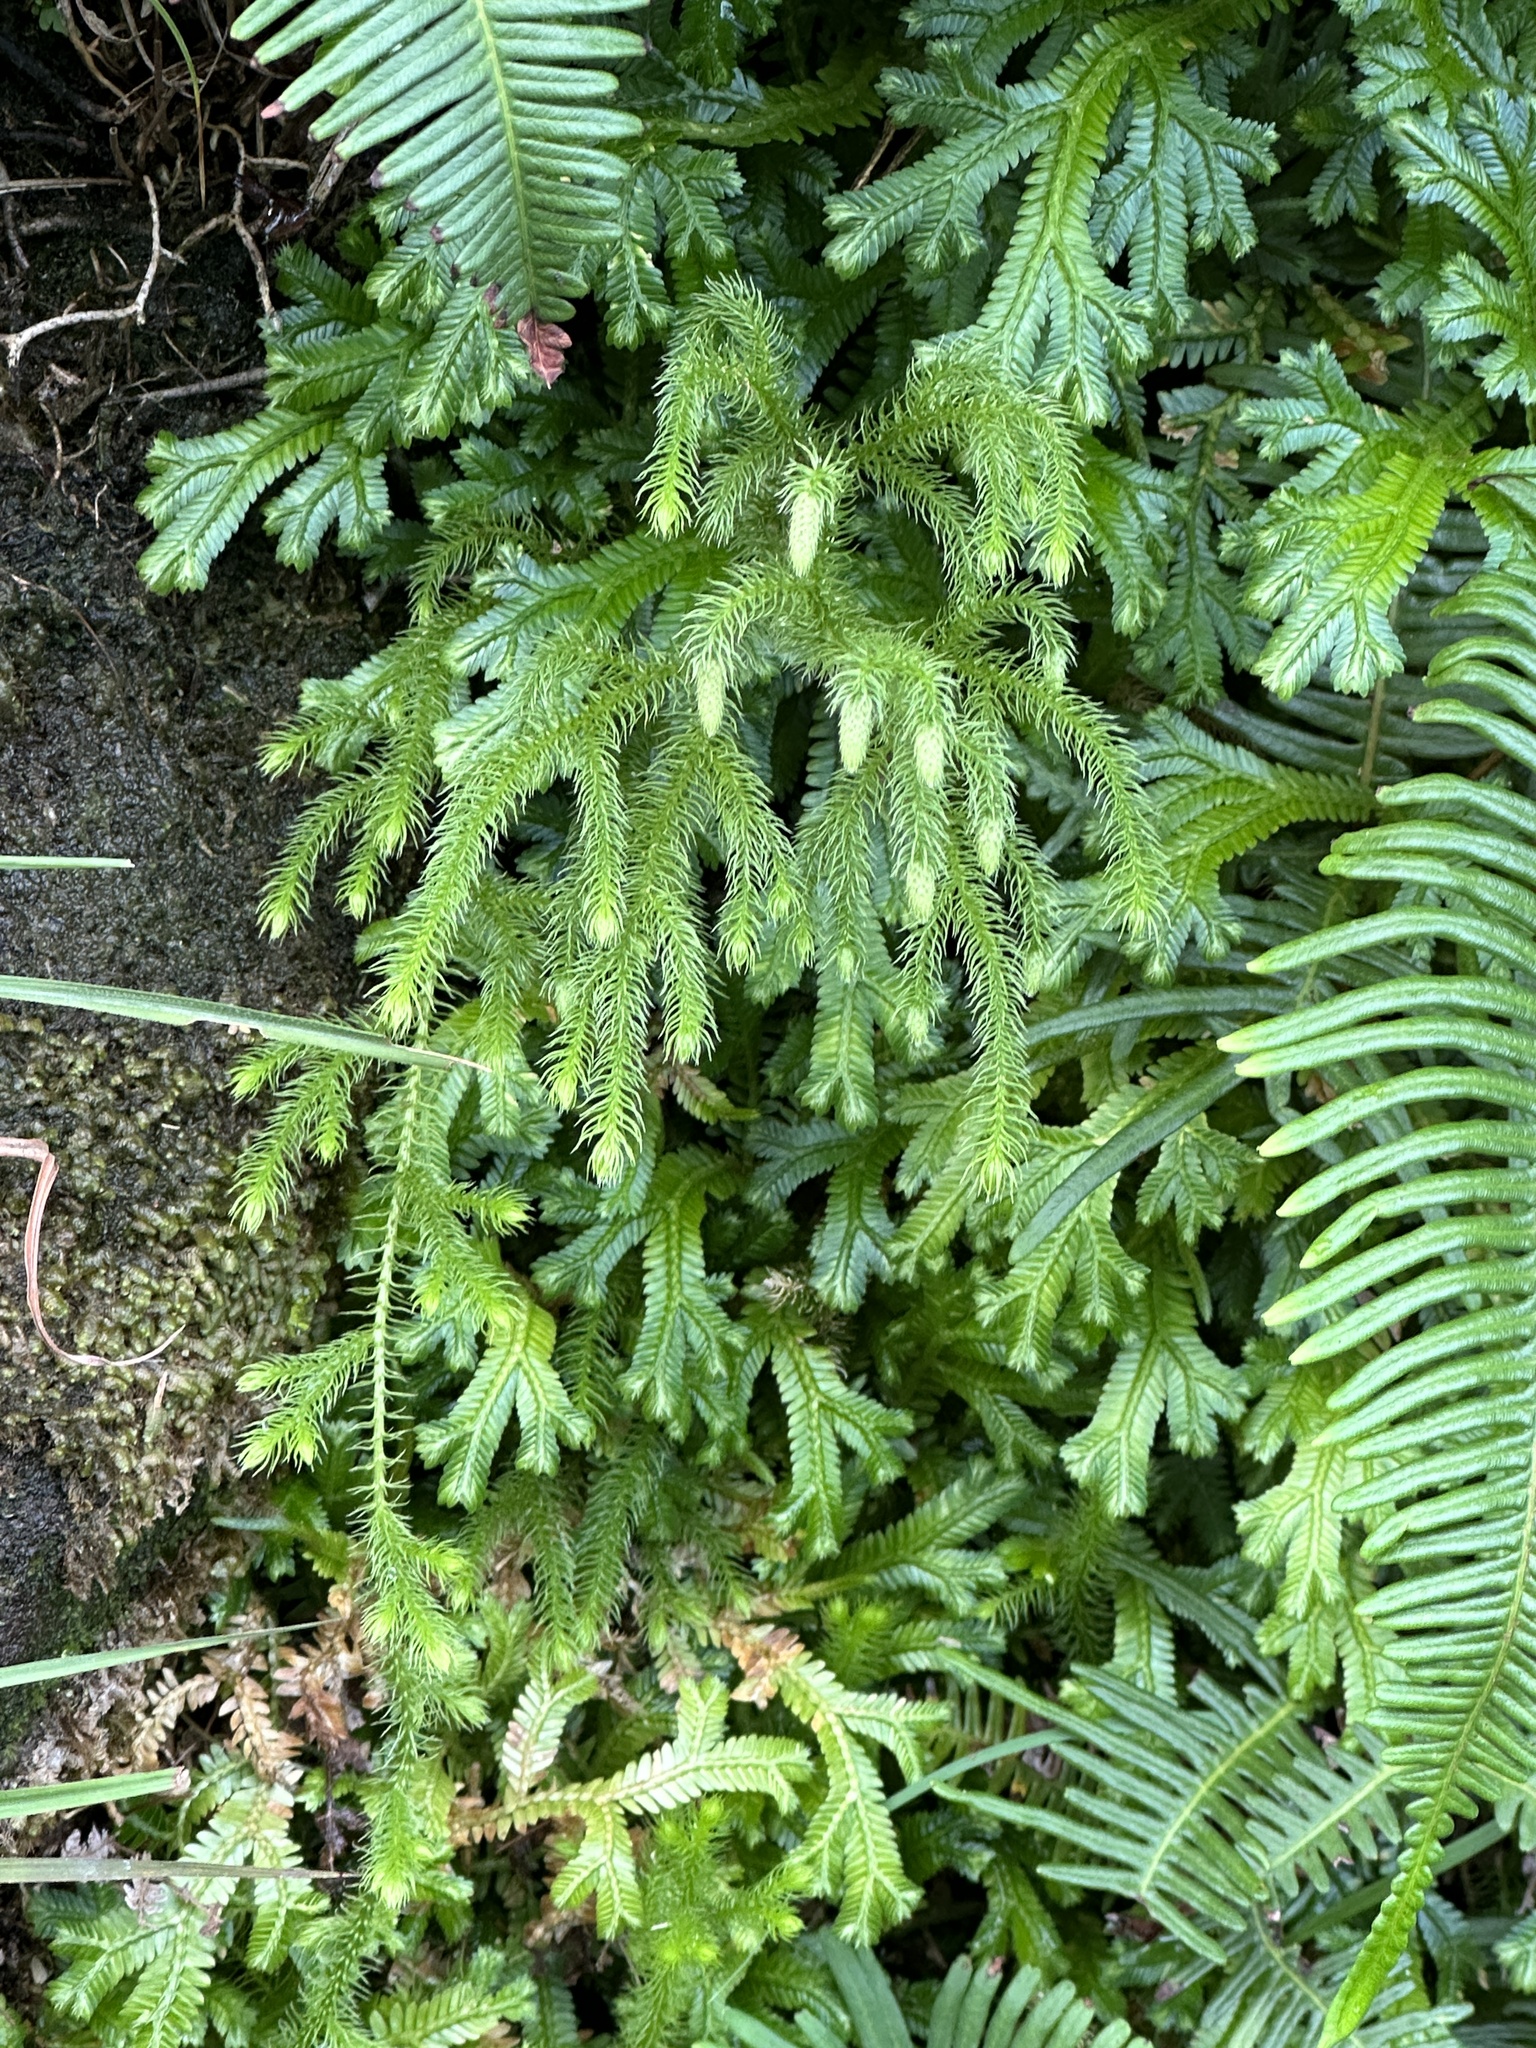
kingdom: Plantae
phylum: Tracheophyta
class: Lycopodiopsida
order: Lycopodiales
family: Lycopodiaceae
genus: Palhinhaea
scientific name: Palhinhaea cernua
